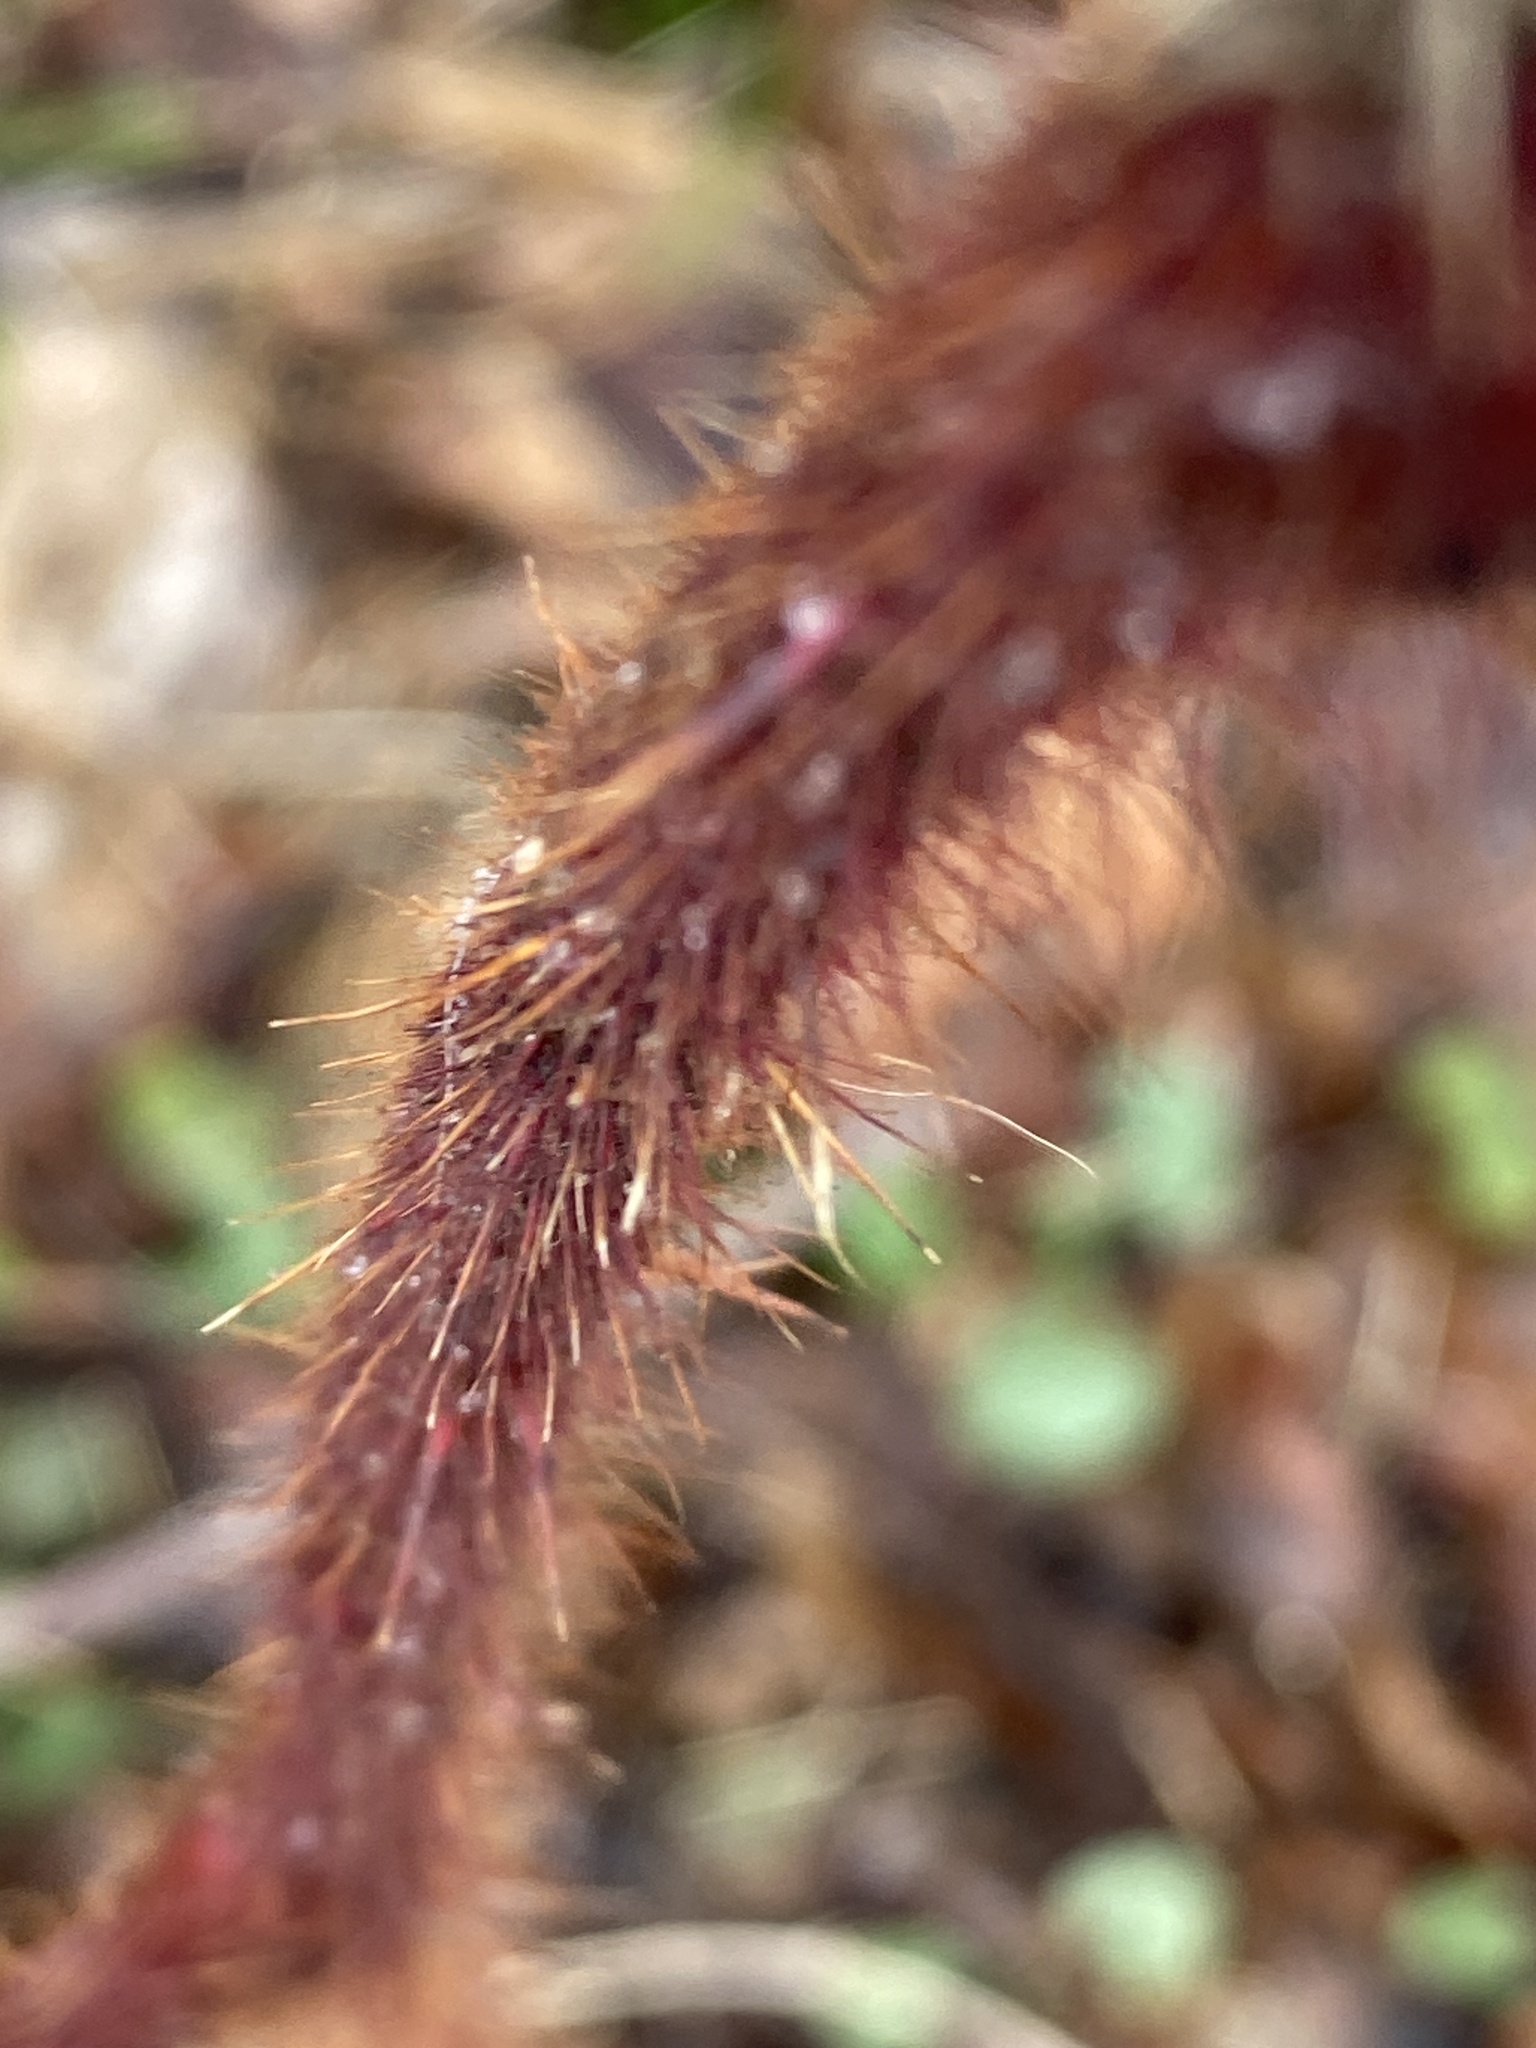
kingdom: Plantae
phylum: Tracheophyta
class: Magnoliopsida
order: Rosales
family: Rosaceae
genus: Rubus
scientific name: Rubus phoenicolasius
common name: Japanese wineberry
